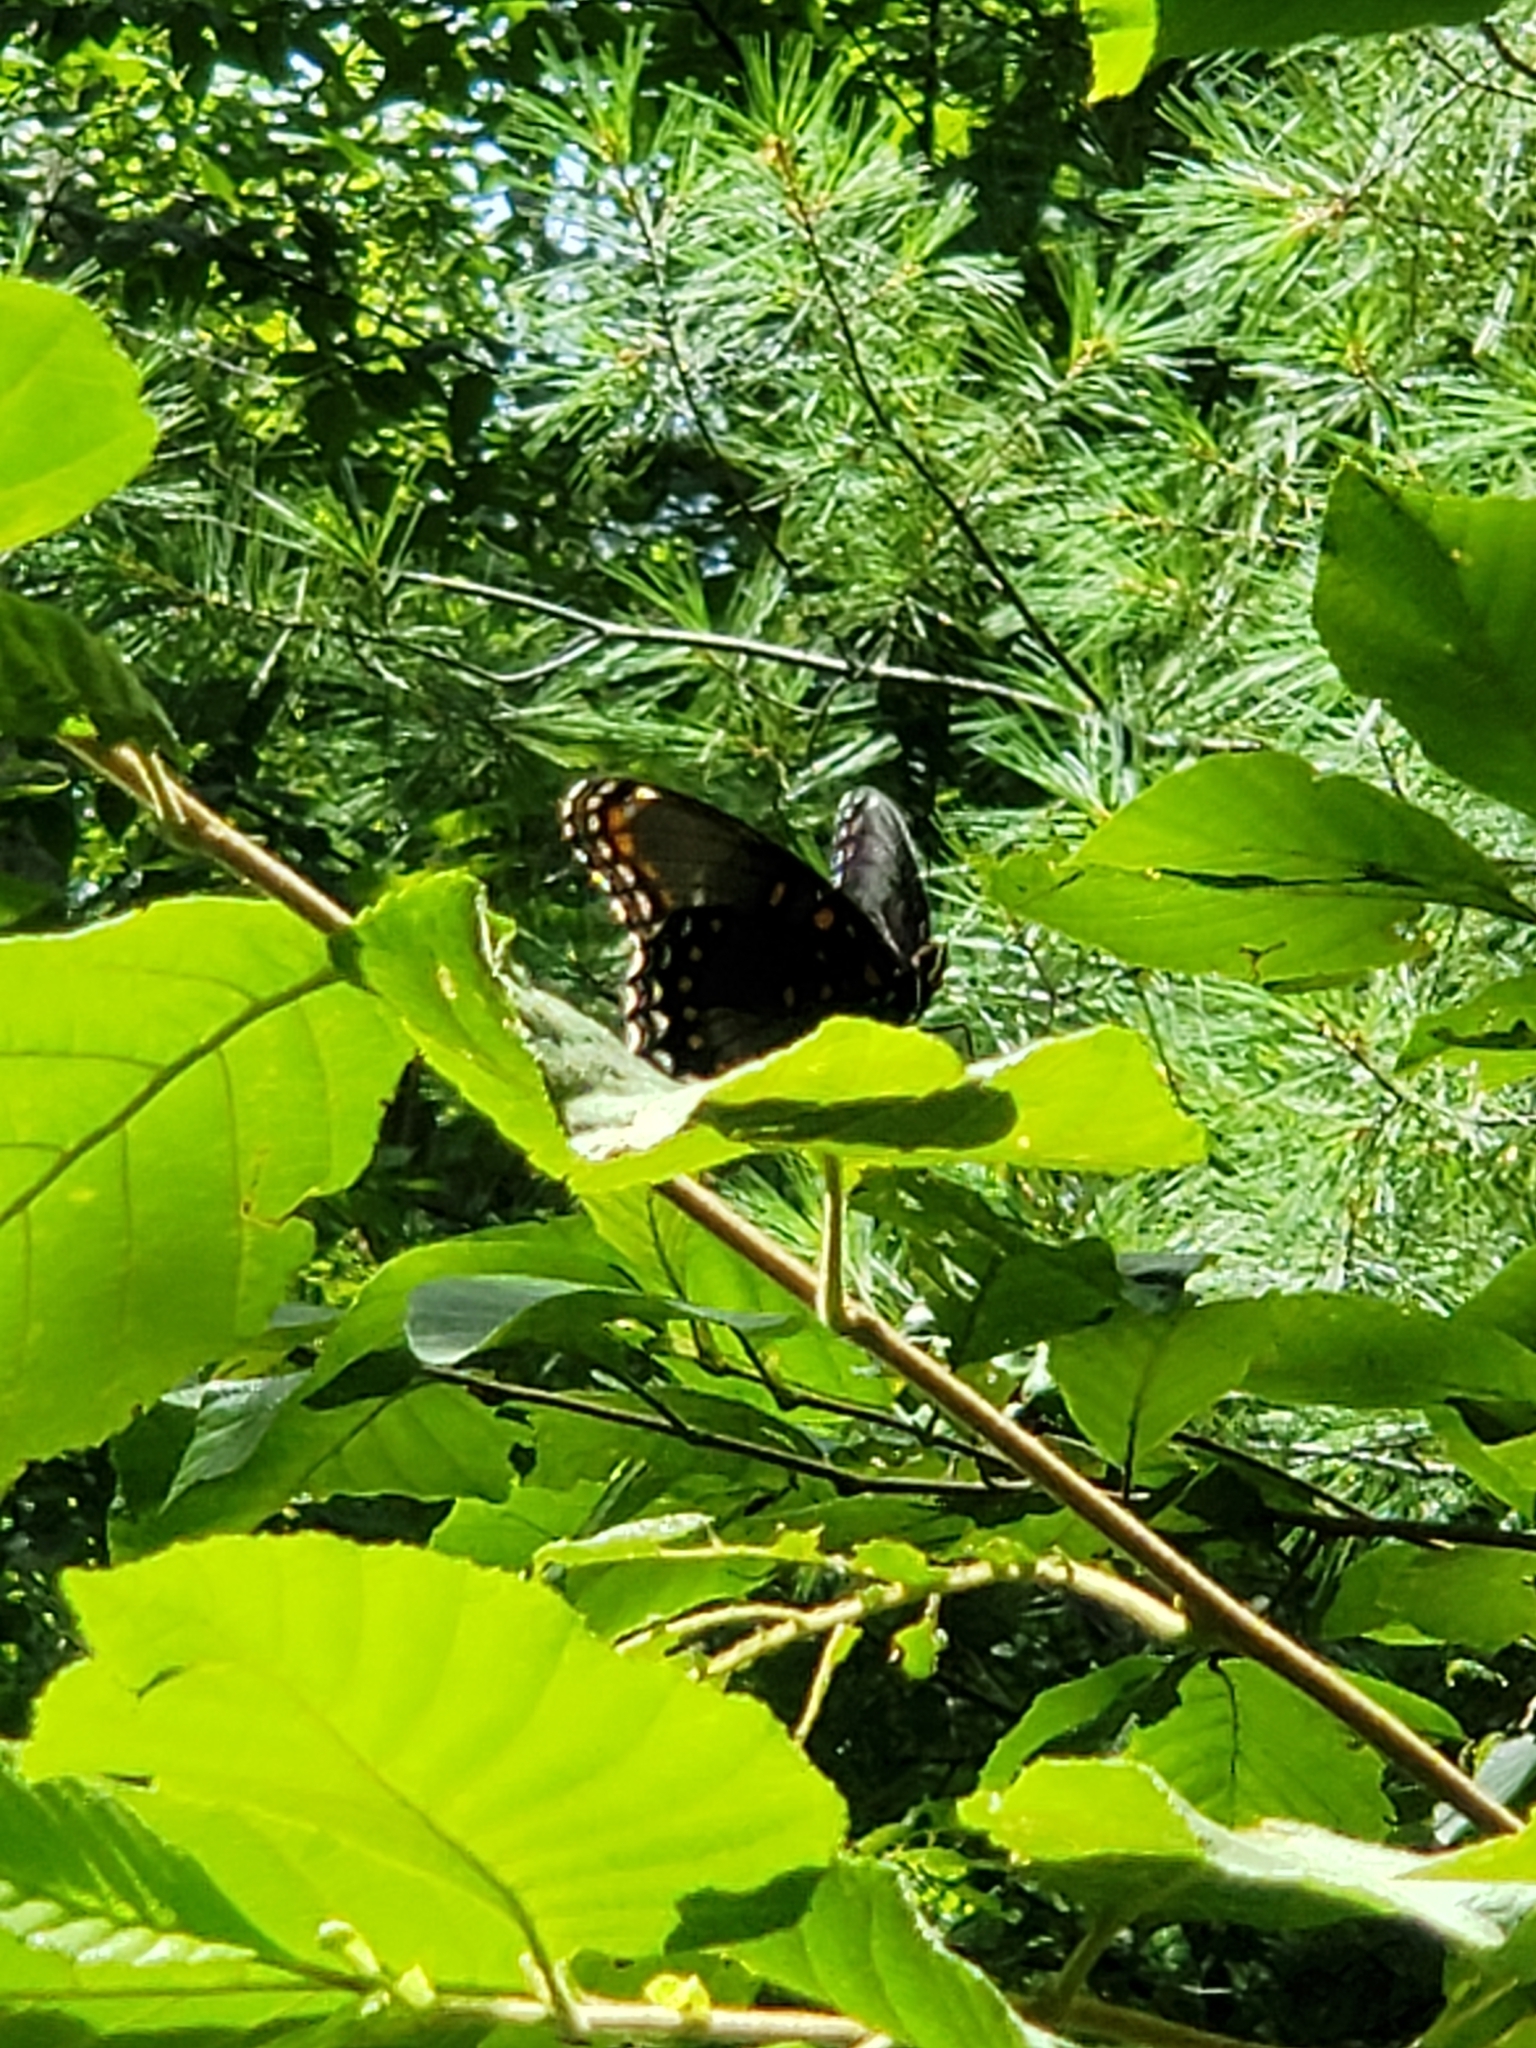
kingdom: Animalia
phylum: Arthropoda
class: Insecta
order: Lepidoptera
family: Nymphalidae
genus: Limenitis
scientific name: Limenitis arthemis
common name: Red-spotted admiral
